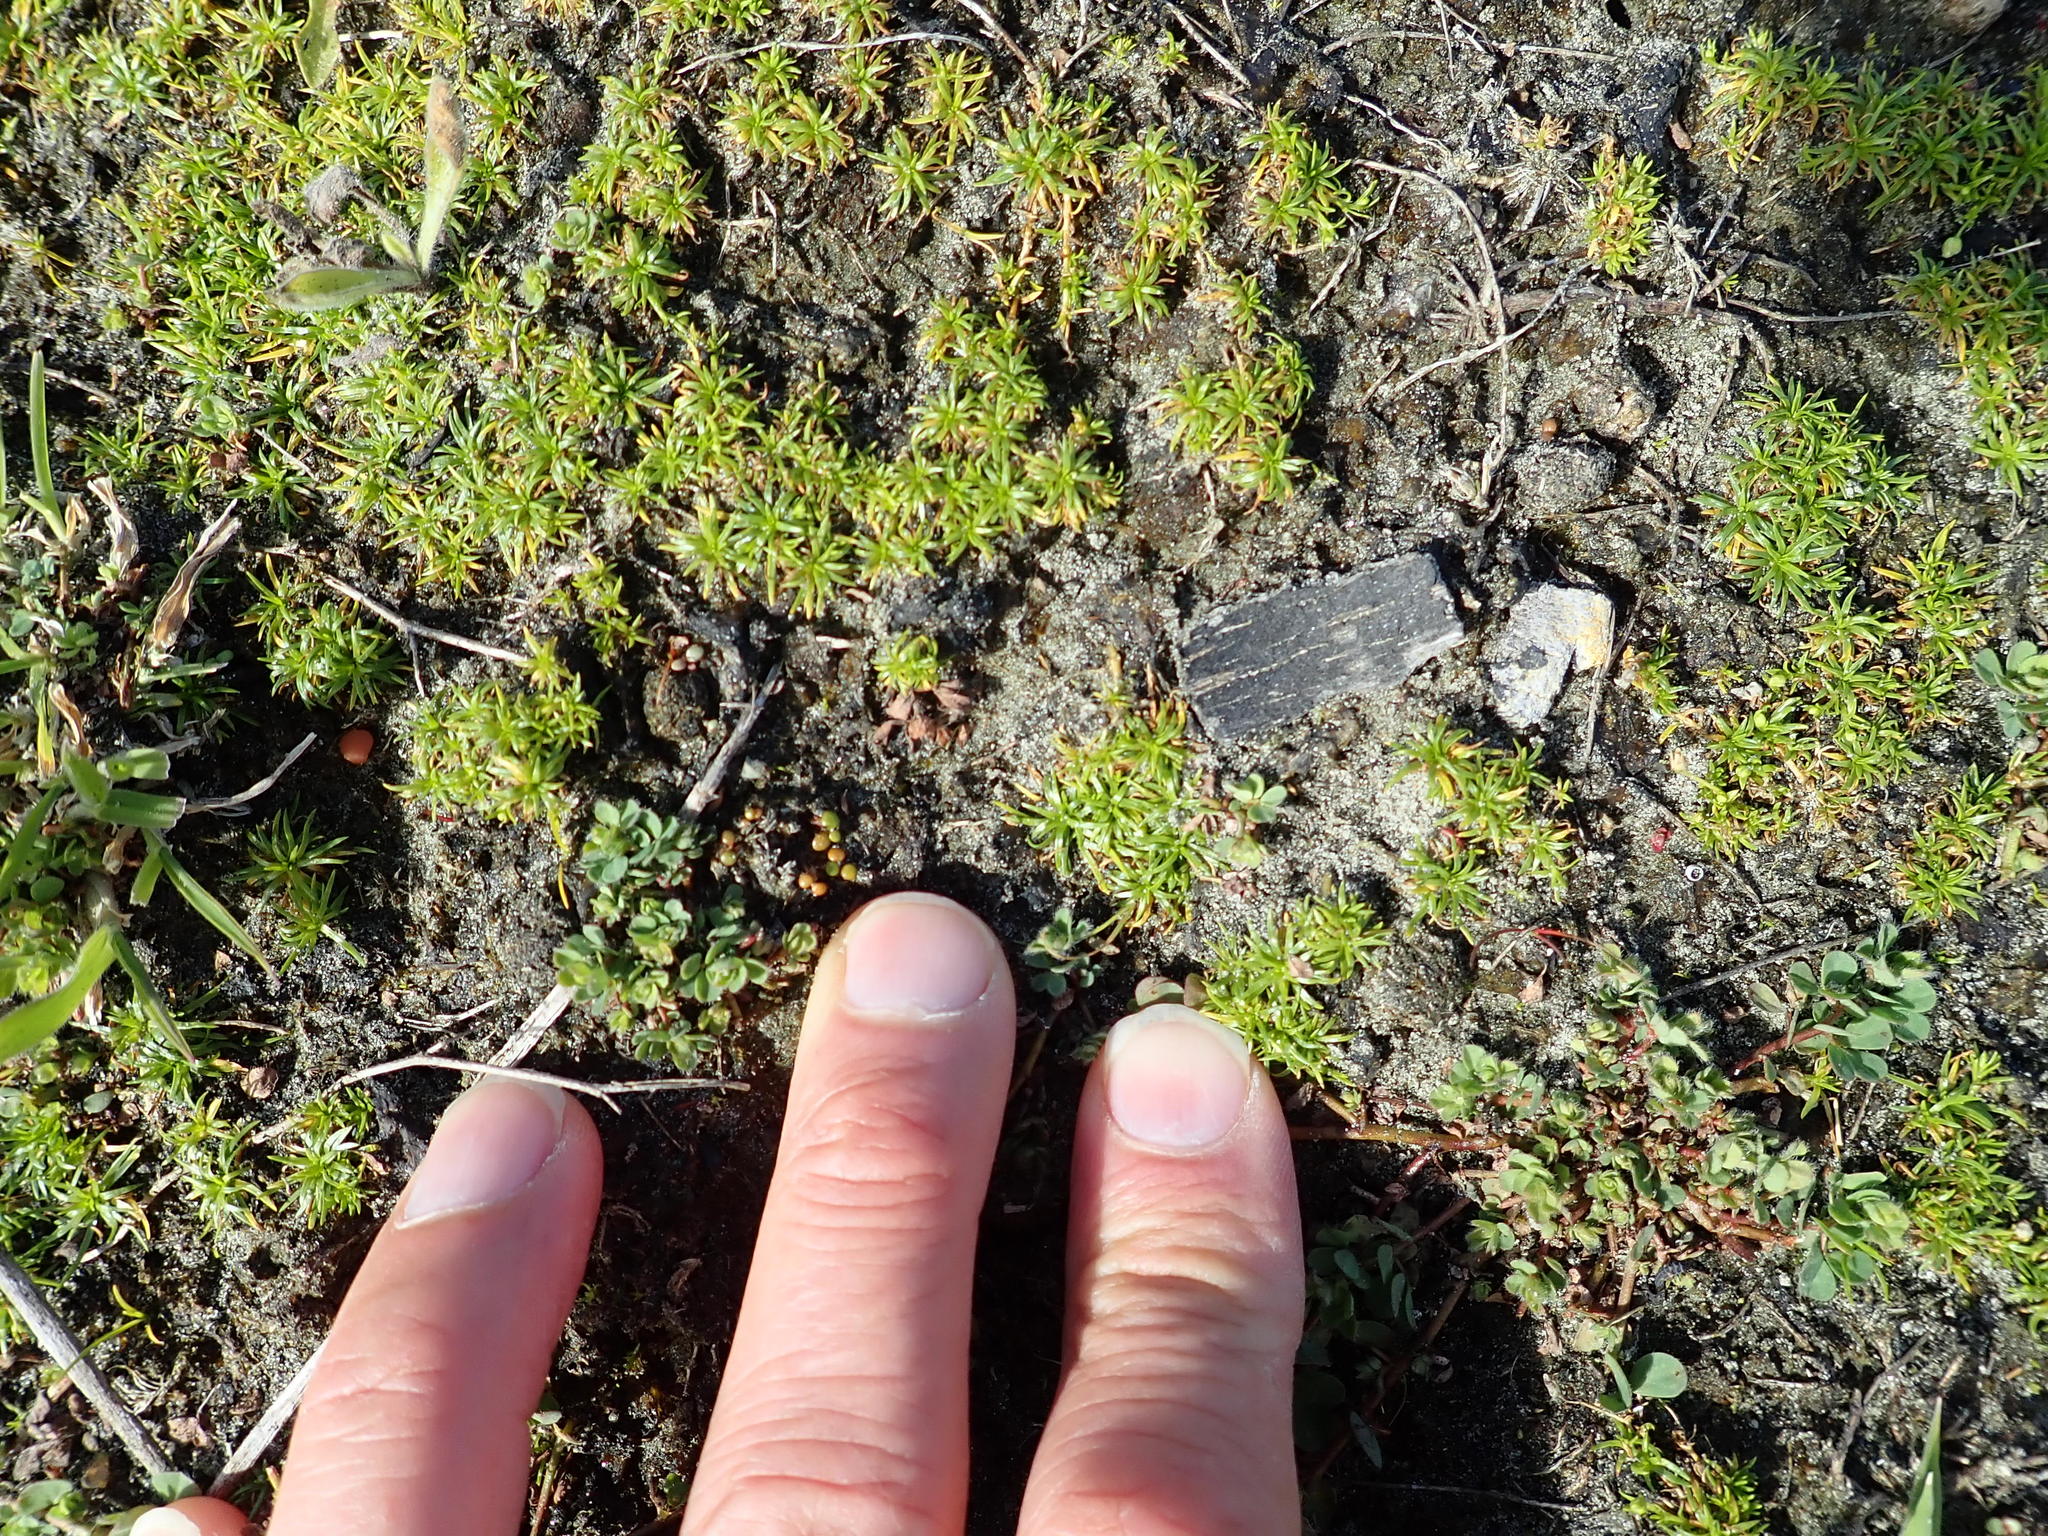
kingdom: Plantae
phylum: Tracheophyta
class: Magnoliopsida
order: Caryophyllales
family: Caryophyllaceae
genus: Sagina
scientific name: Sagina procumbens
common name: Procumbent pearlwort
